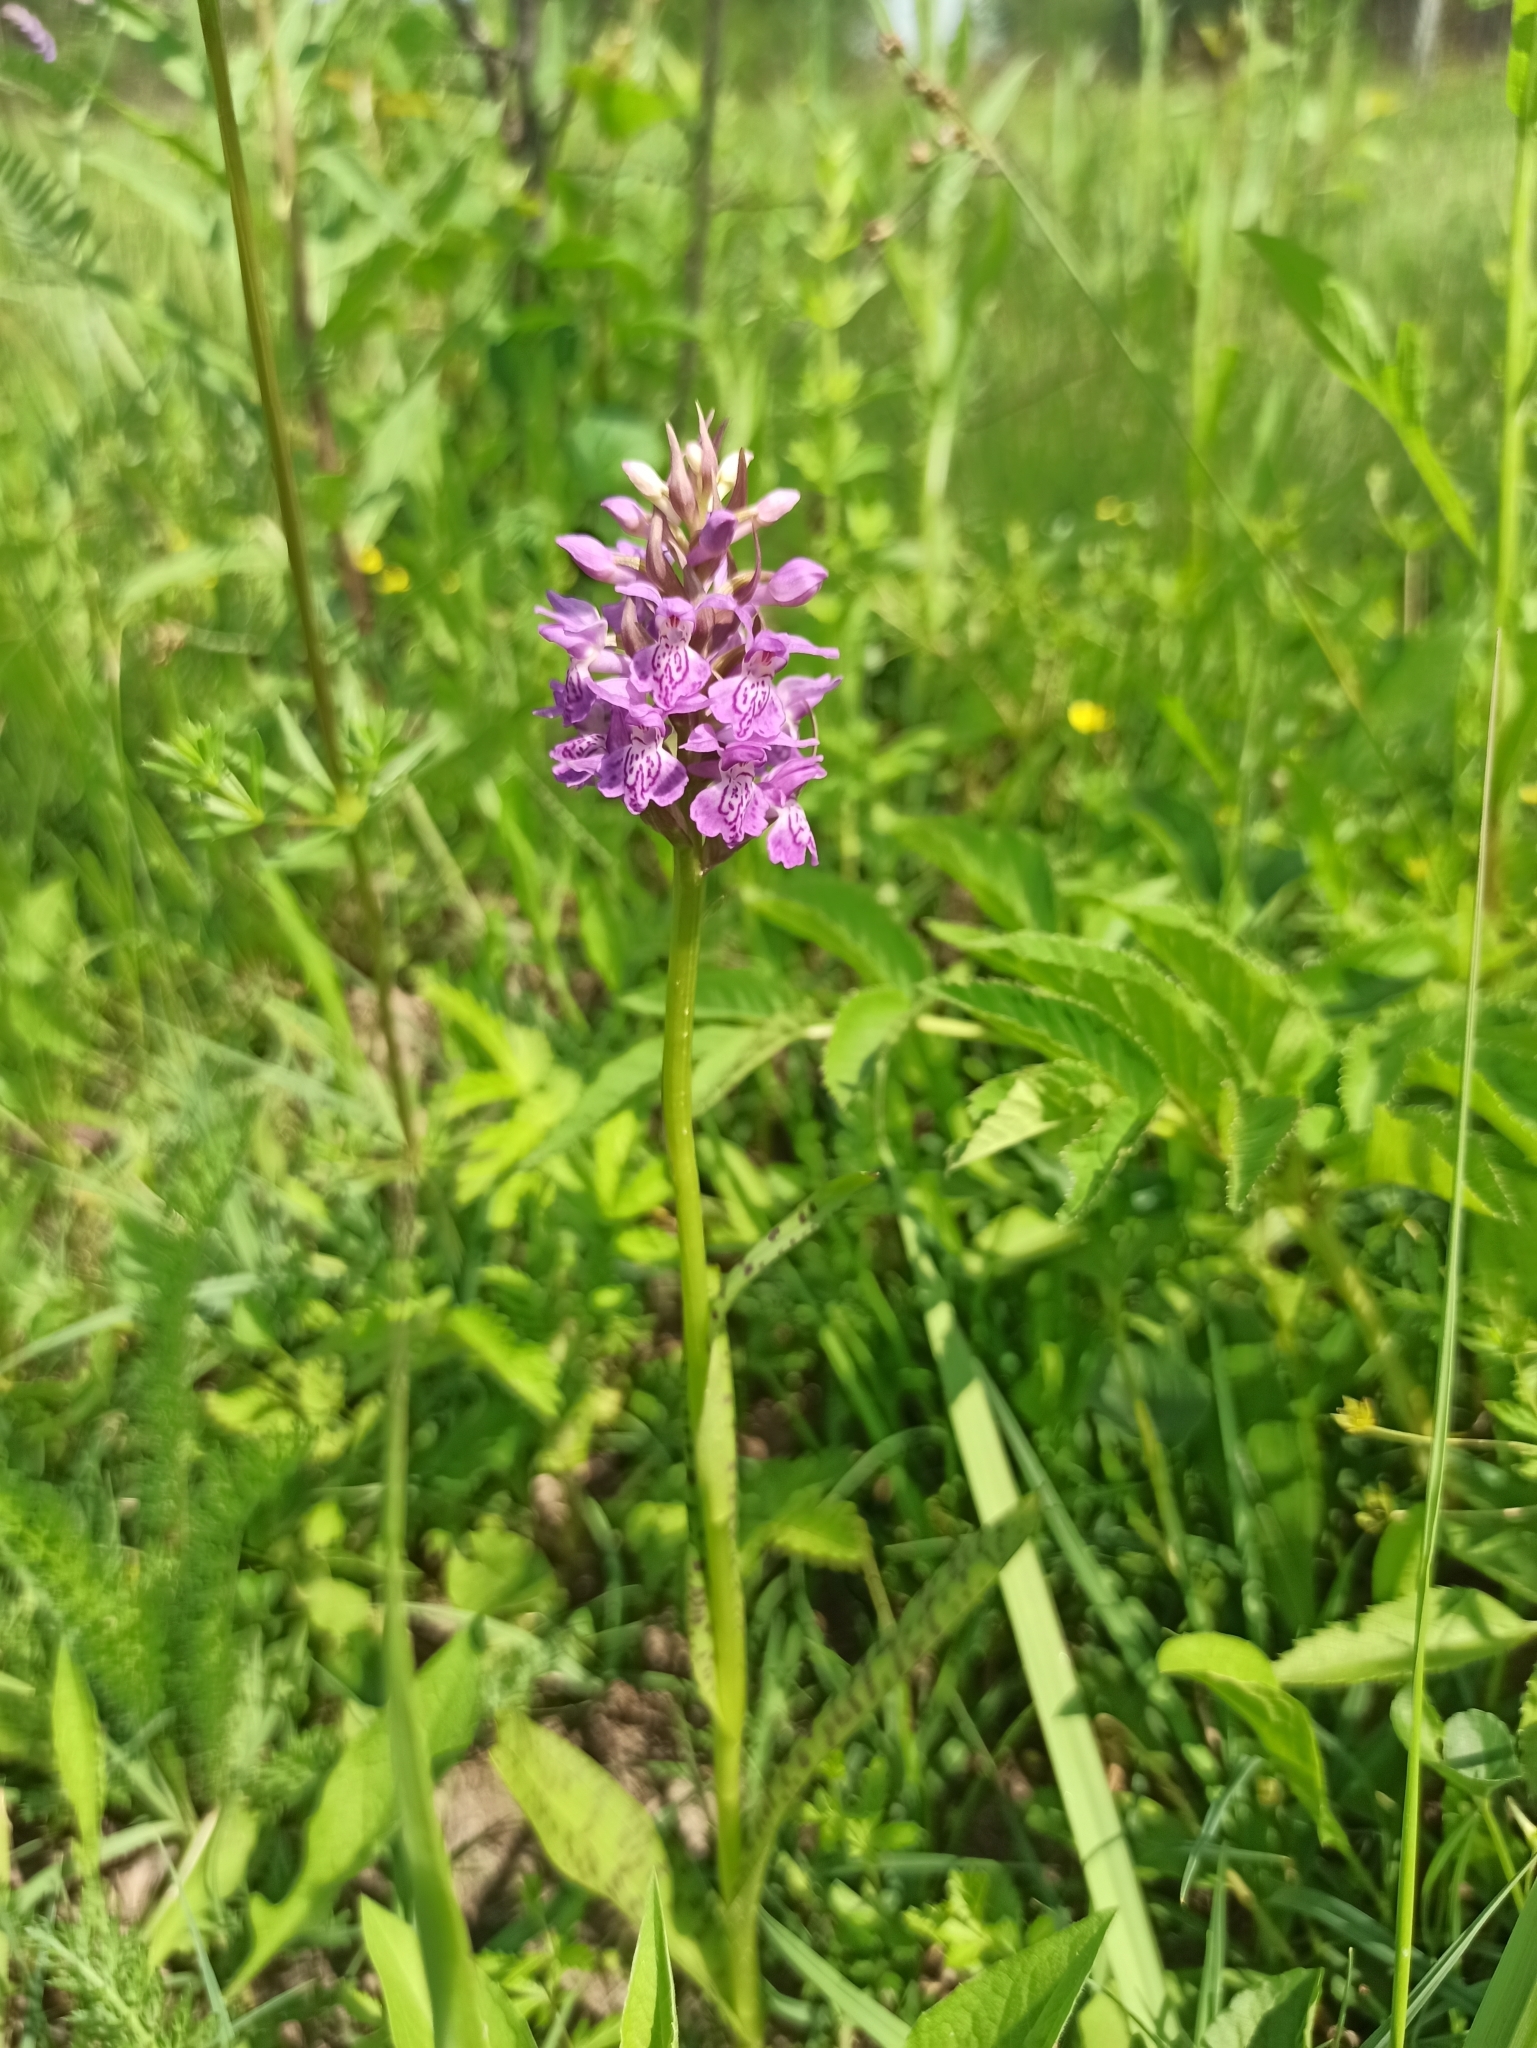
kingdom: Plantae
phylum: Tracheophyta
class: Liliopsida
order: Asparagales
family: Orchidaceae
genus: Dactylorhiza
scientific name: Dactylorhiza majalis
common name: Marsh orchid
